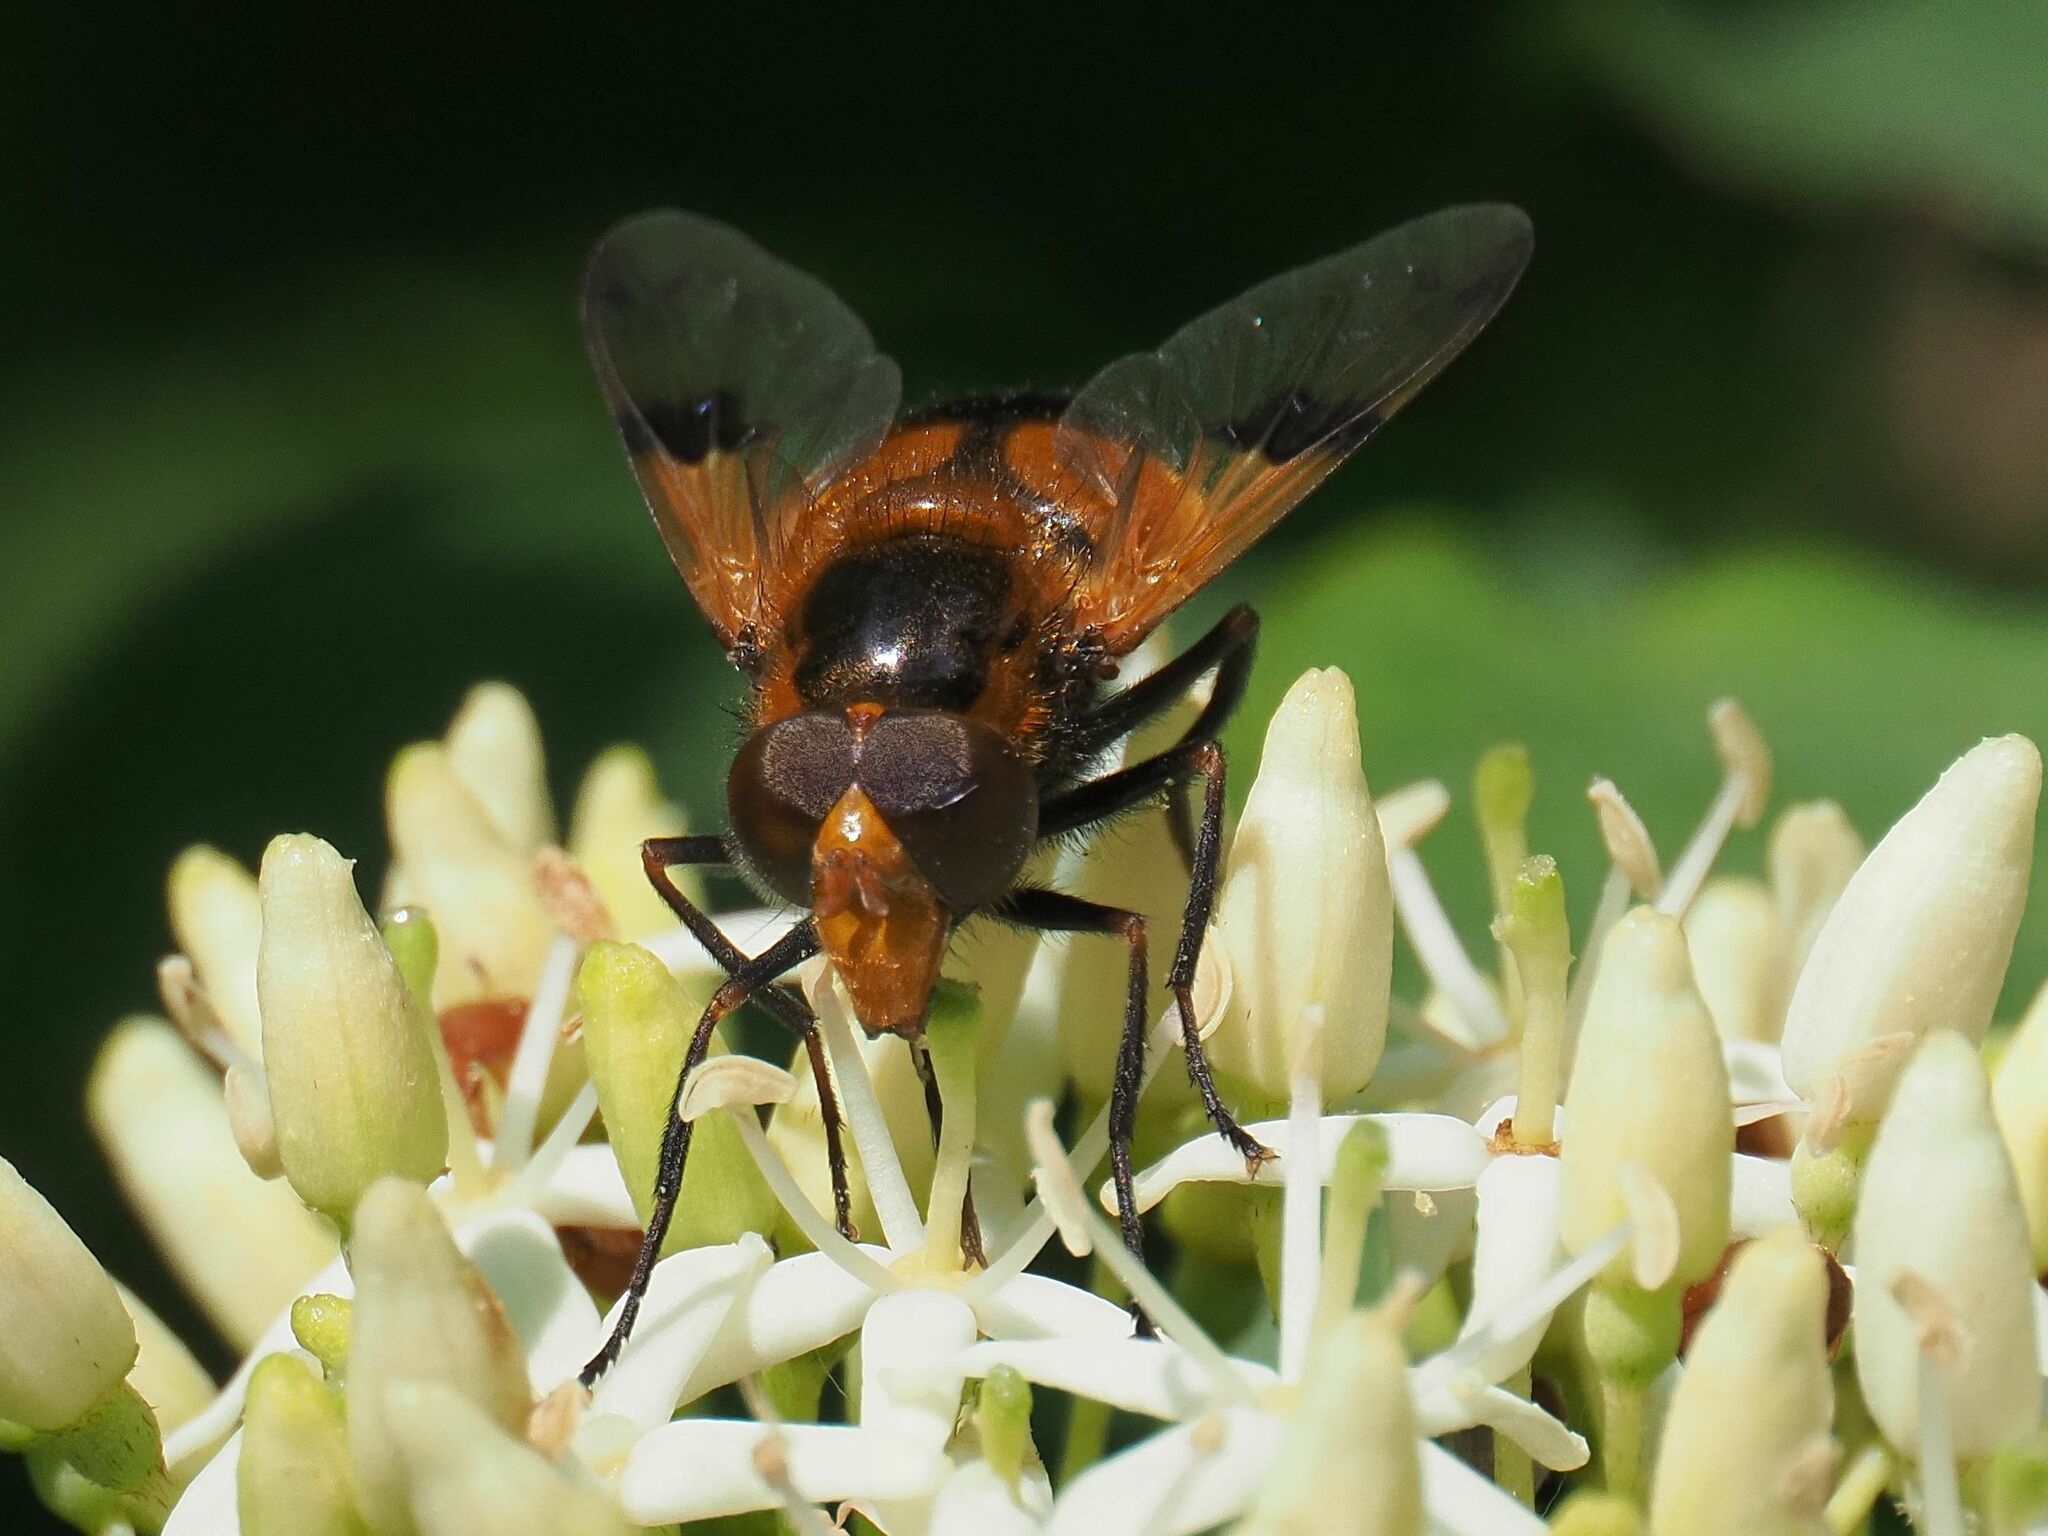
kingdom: Animalia
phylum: Arthropoda
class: Insecta
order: Diptera
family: Syrphidae
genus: Volucella
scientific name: Volucella inflata
